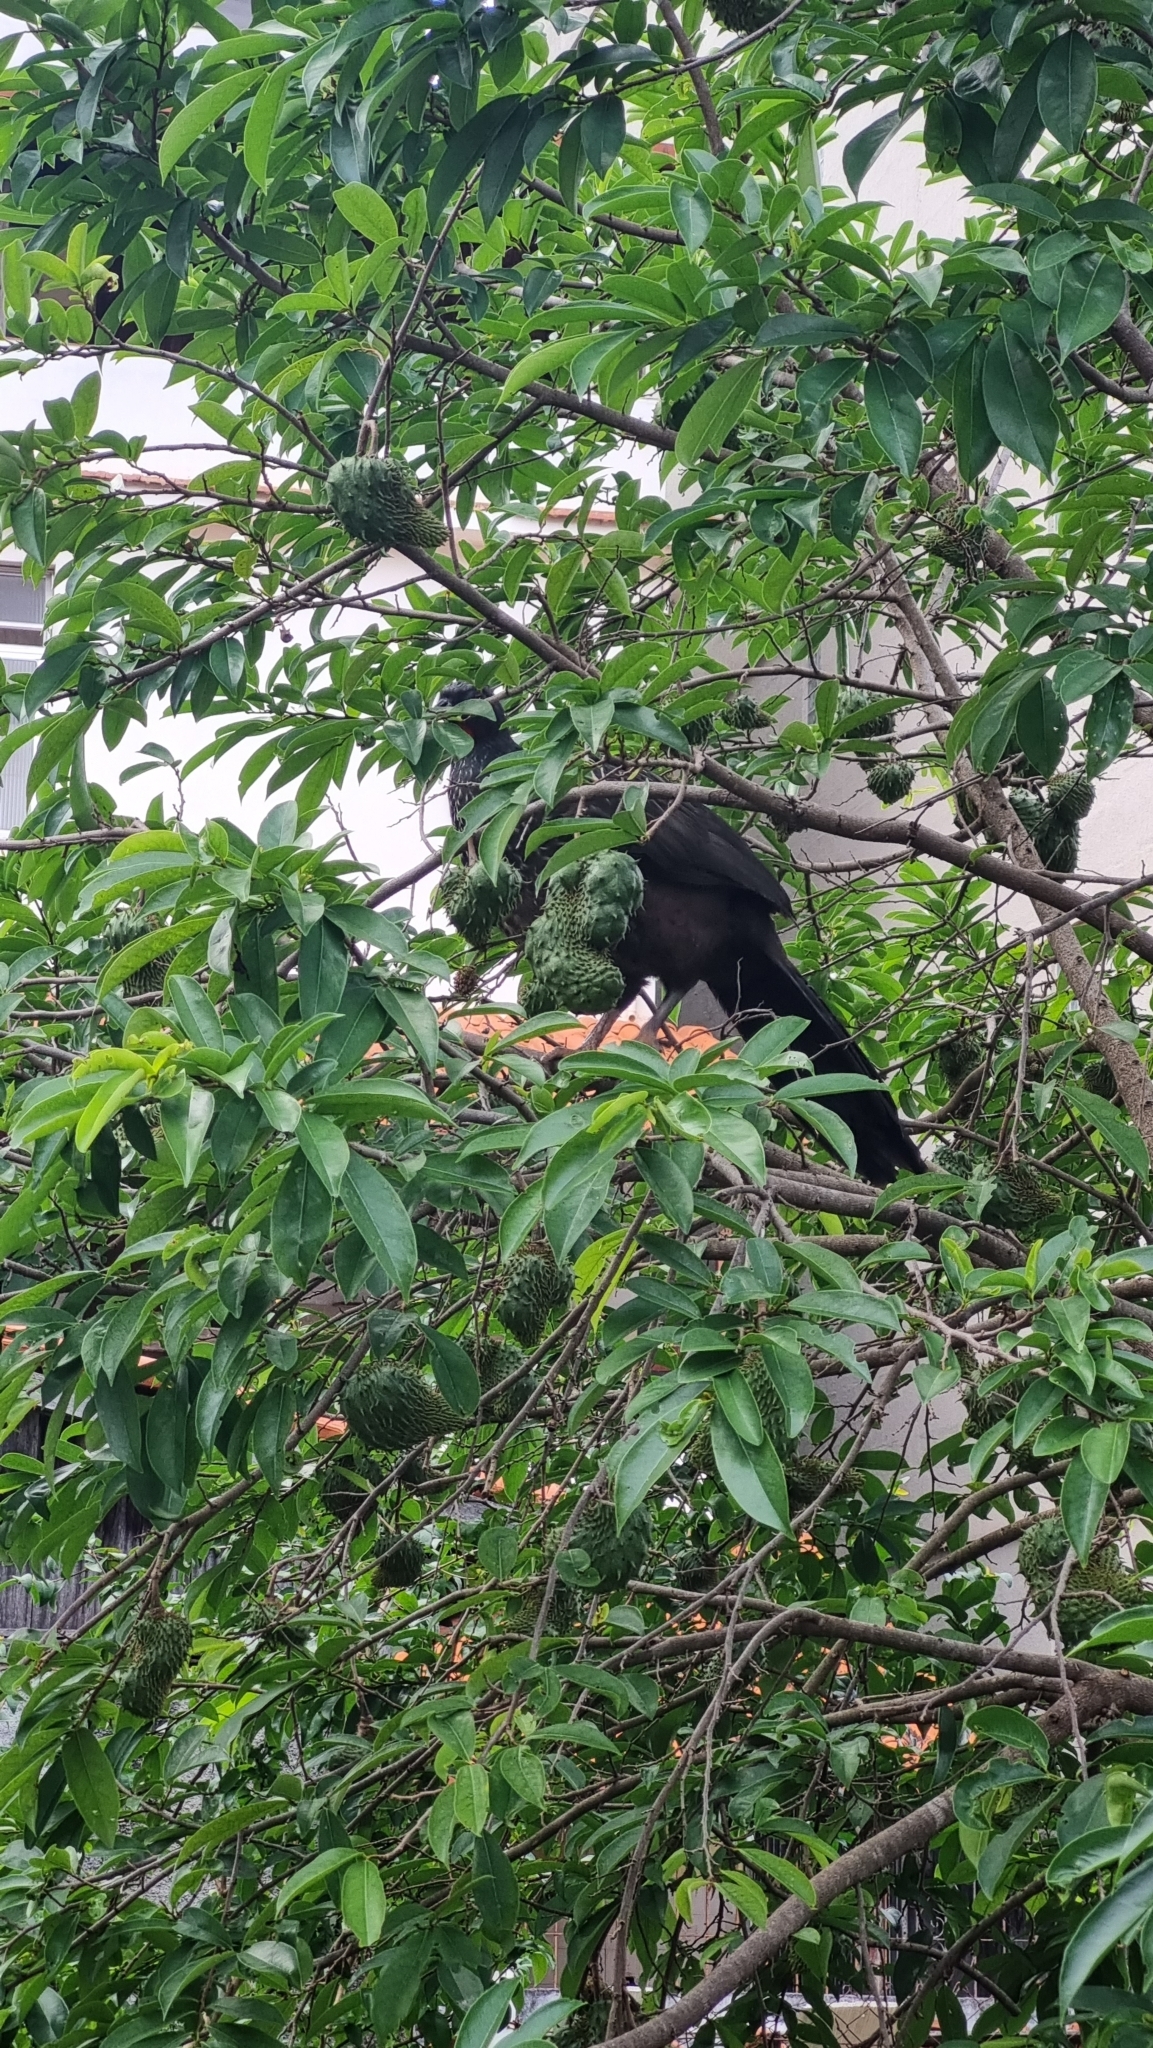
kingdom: Animalia
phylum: Chordata
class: Aves
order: Galliformes
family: Cracidae
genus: Penelope
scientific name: Penelope obscura
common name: Dusky-legged guan
